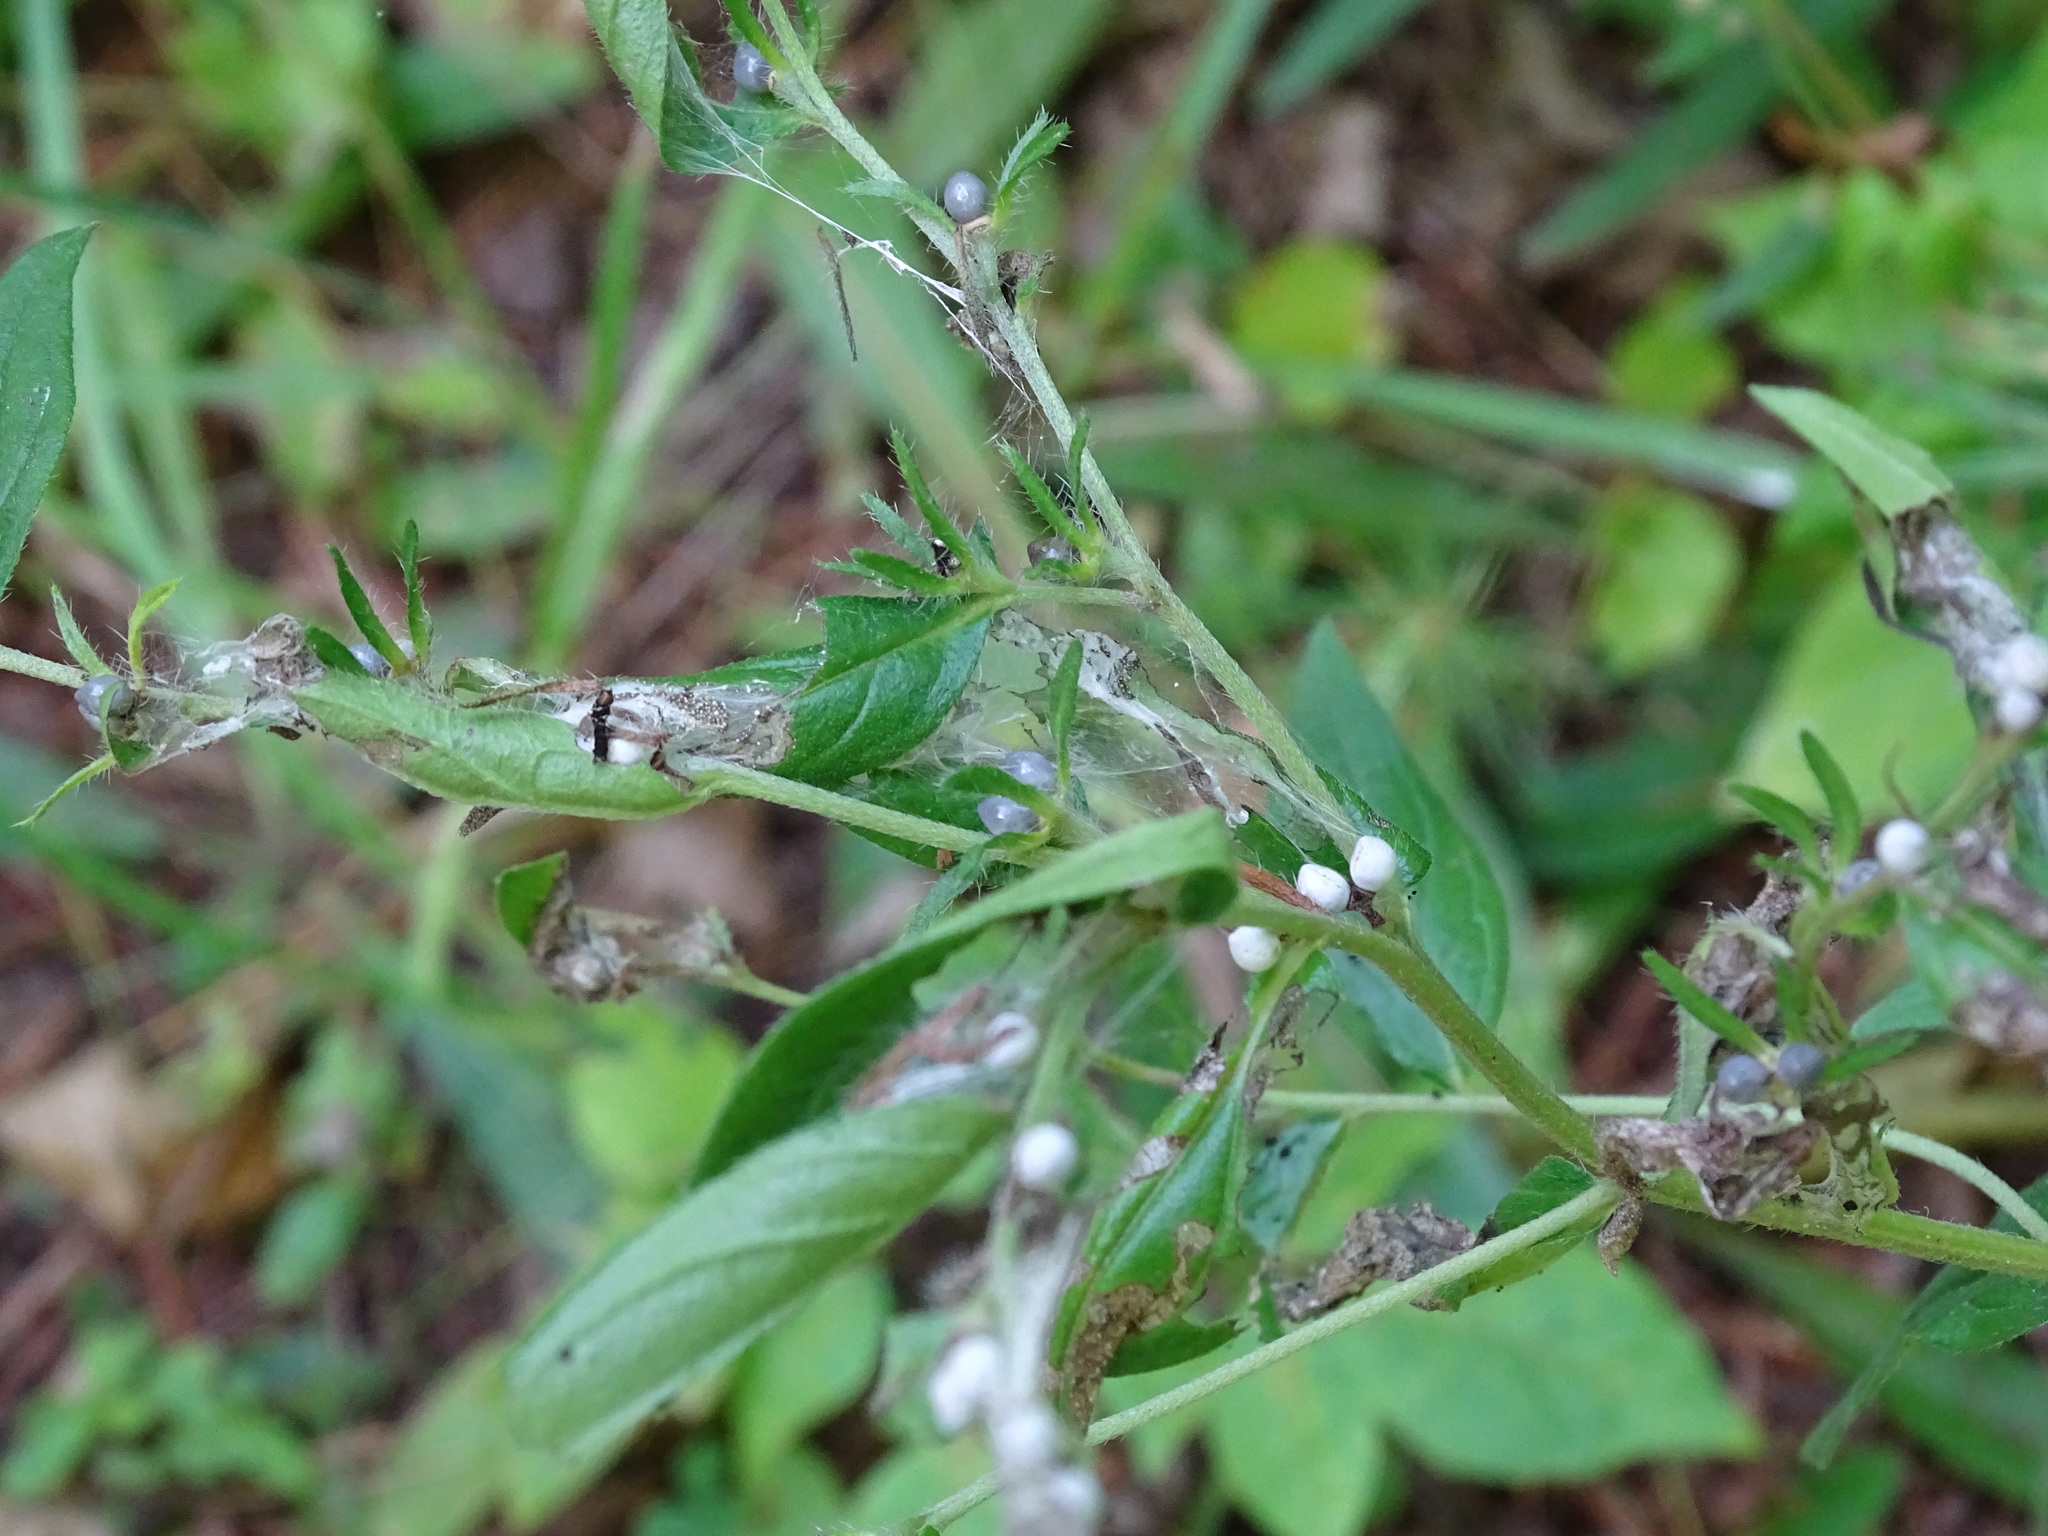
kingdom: Plantae
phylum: Tracheophyta
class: Magnoliopsida
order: Boraginales
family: Boraginaceae
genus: Lithospermum
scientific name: Lithospermum officinale
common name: Common gromwell
